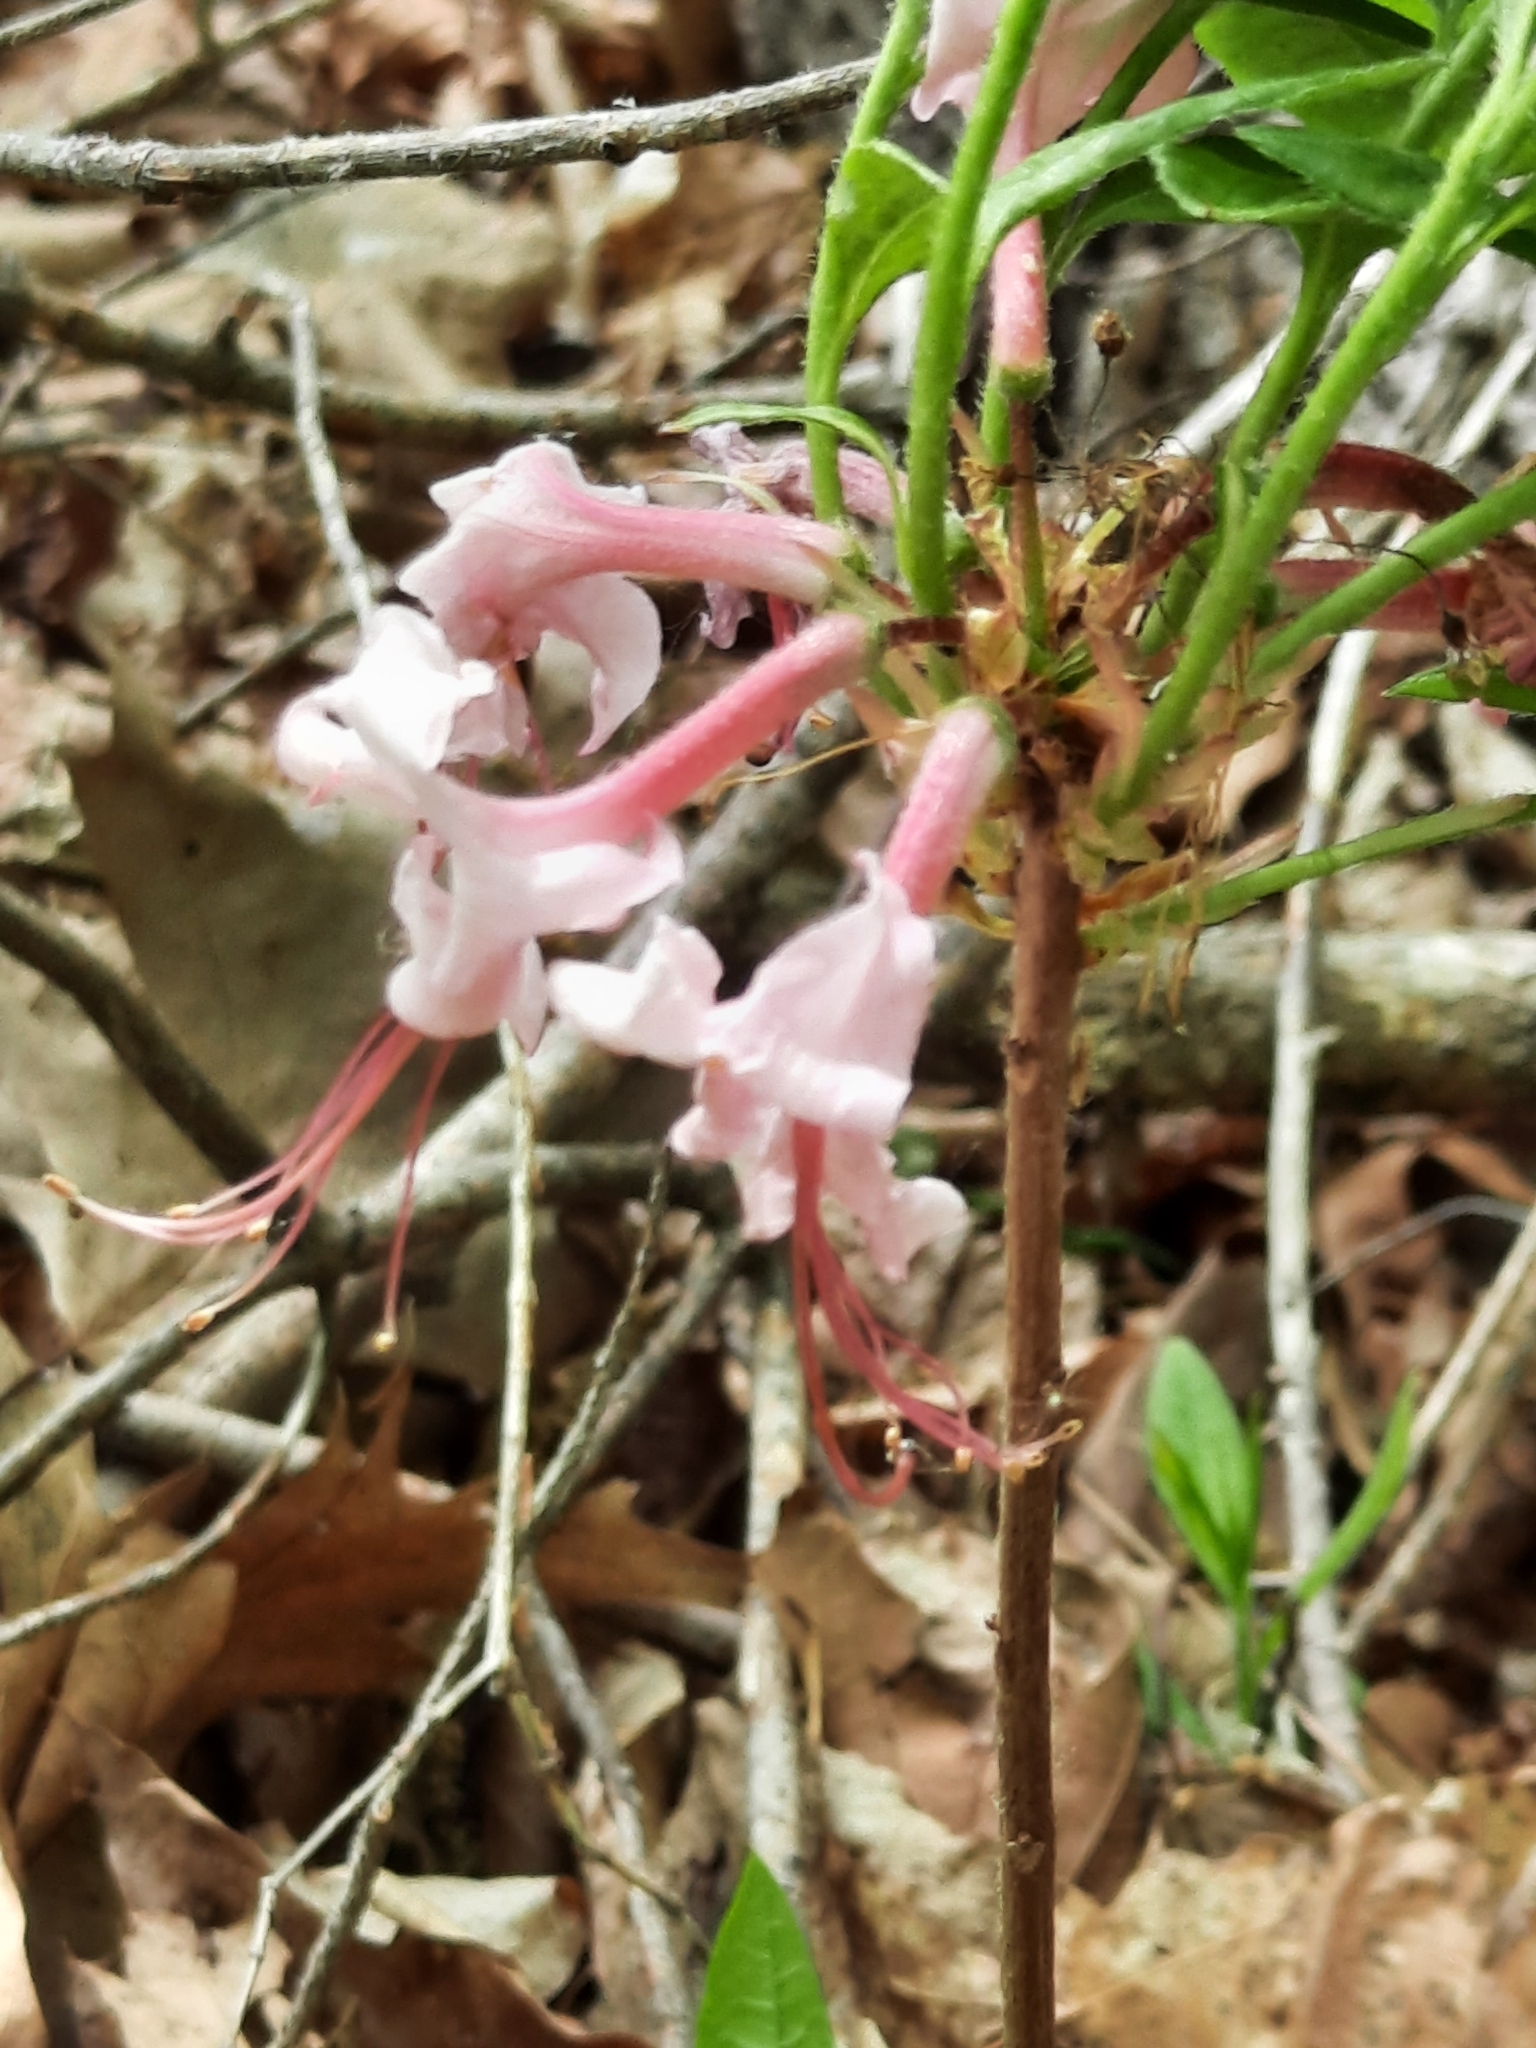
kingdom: Plantae
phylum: Tracheophyta
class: Magnoliopsida
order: Ericales
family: Ericaceae
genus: Rhododendron
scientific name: Rhododendron periclymenoides
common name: Election-pink
